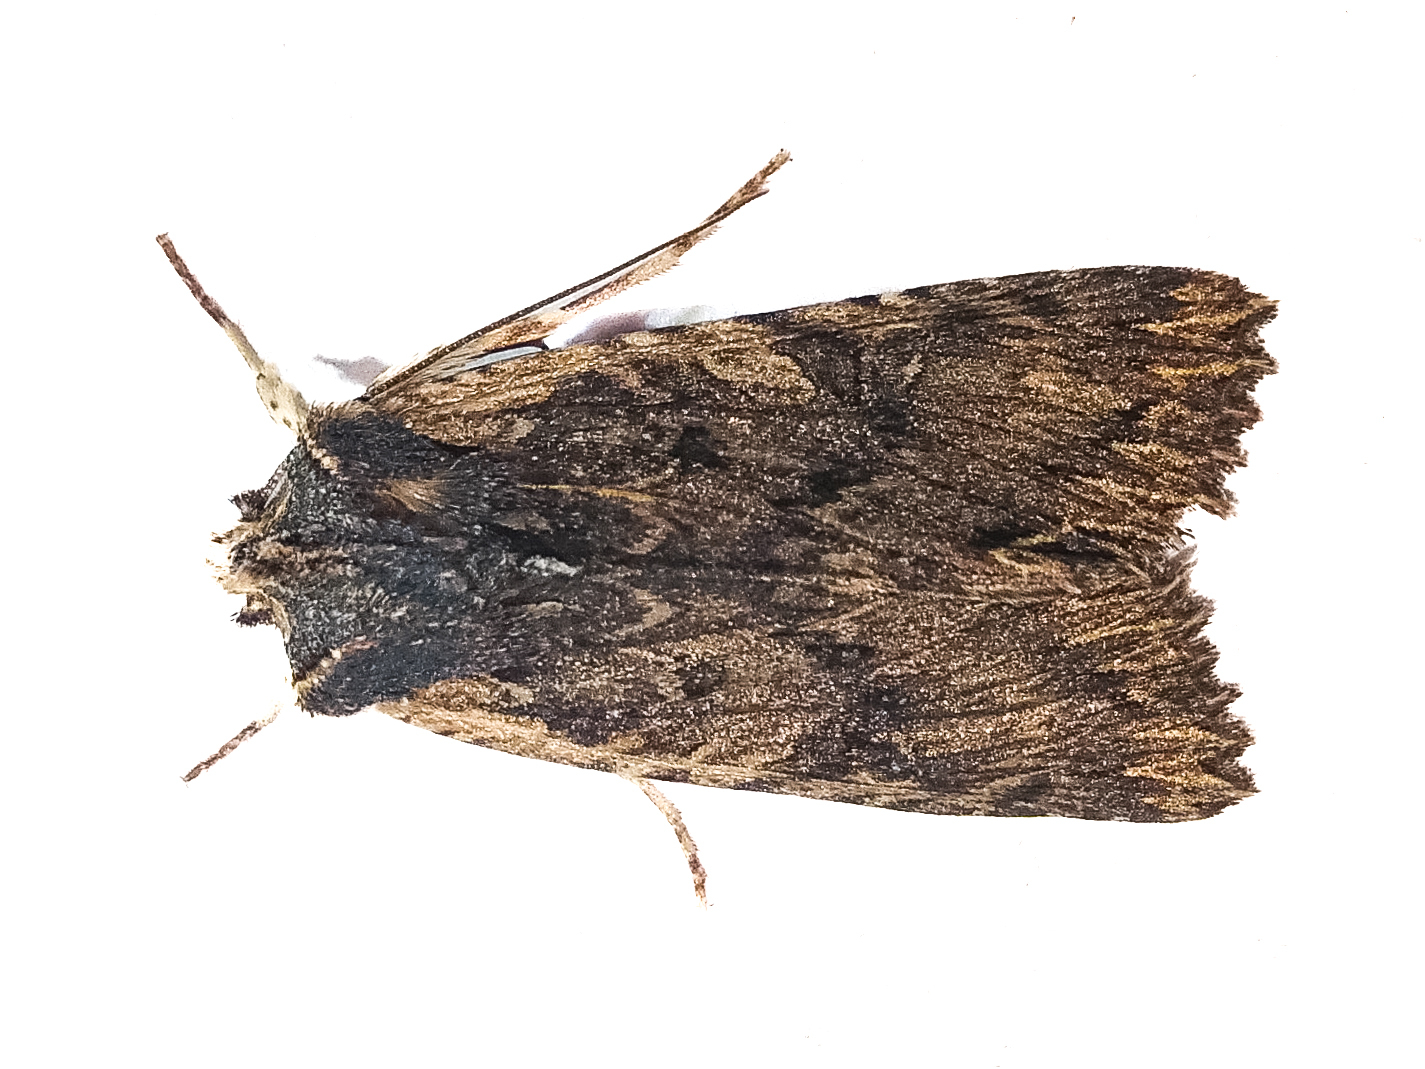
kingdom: Animalia
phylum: Arthropoda
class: Insecta
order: Lepidoptera
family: Noctuidae
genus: Meterana
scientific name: Meterana alcyone
